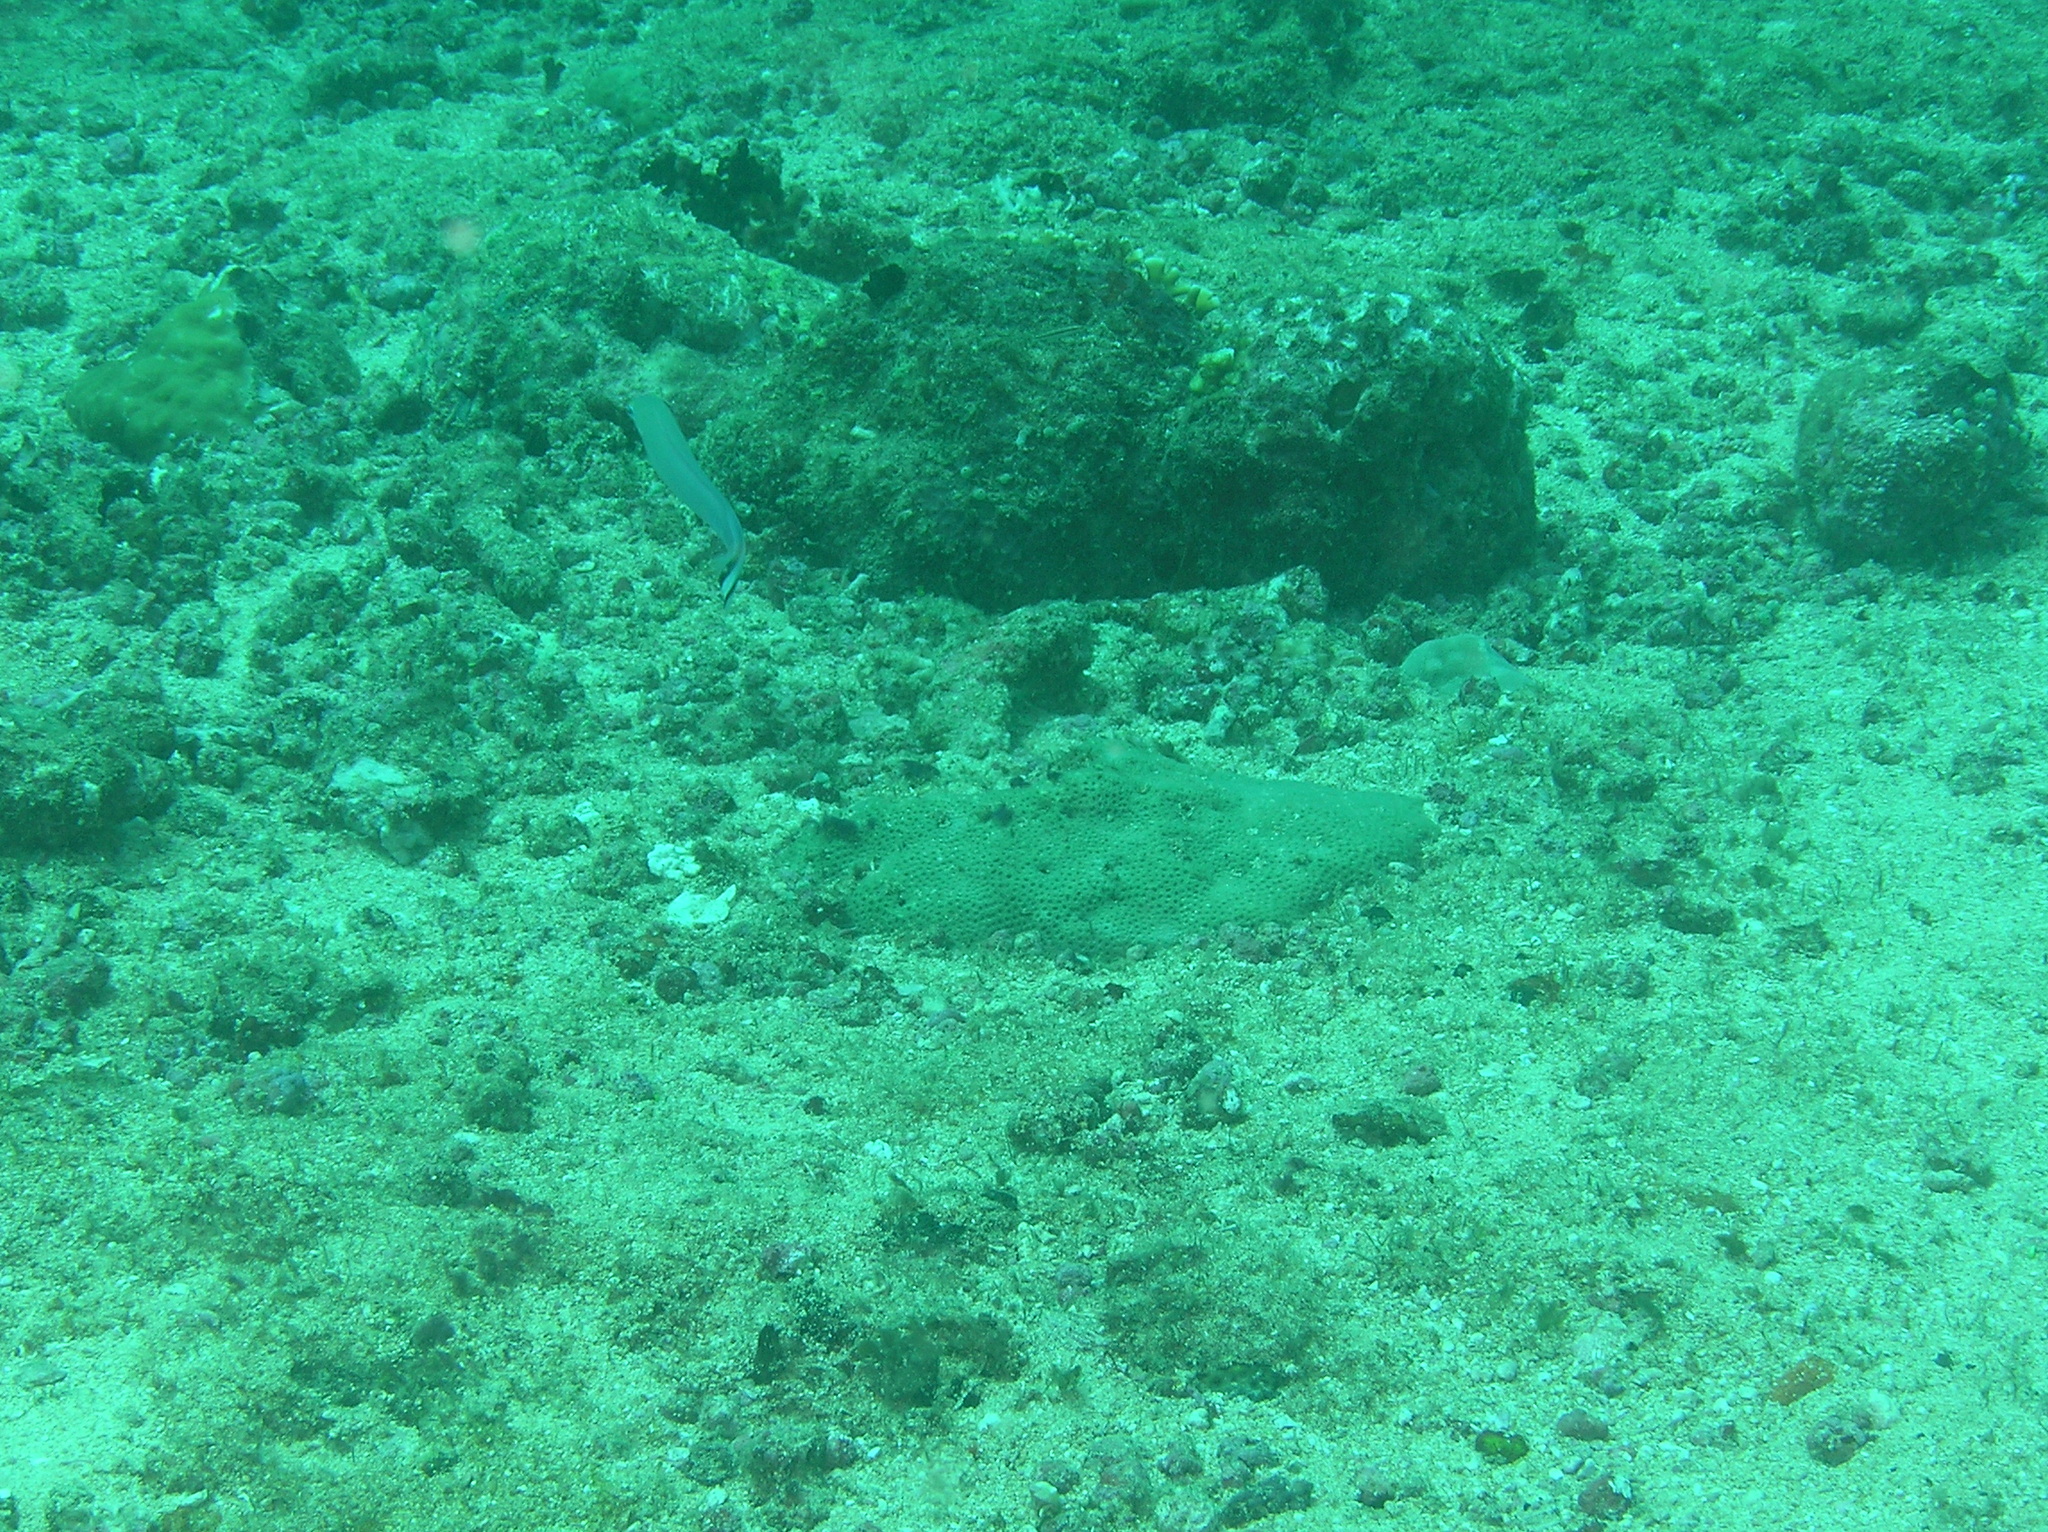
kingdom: Animalia
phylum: Chordata
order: Perciformes
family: Malacanthidae
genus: Malacanthus
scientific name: Malacanthus brevirostris
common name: Flagtail blanquillo
